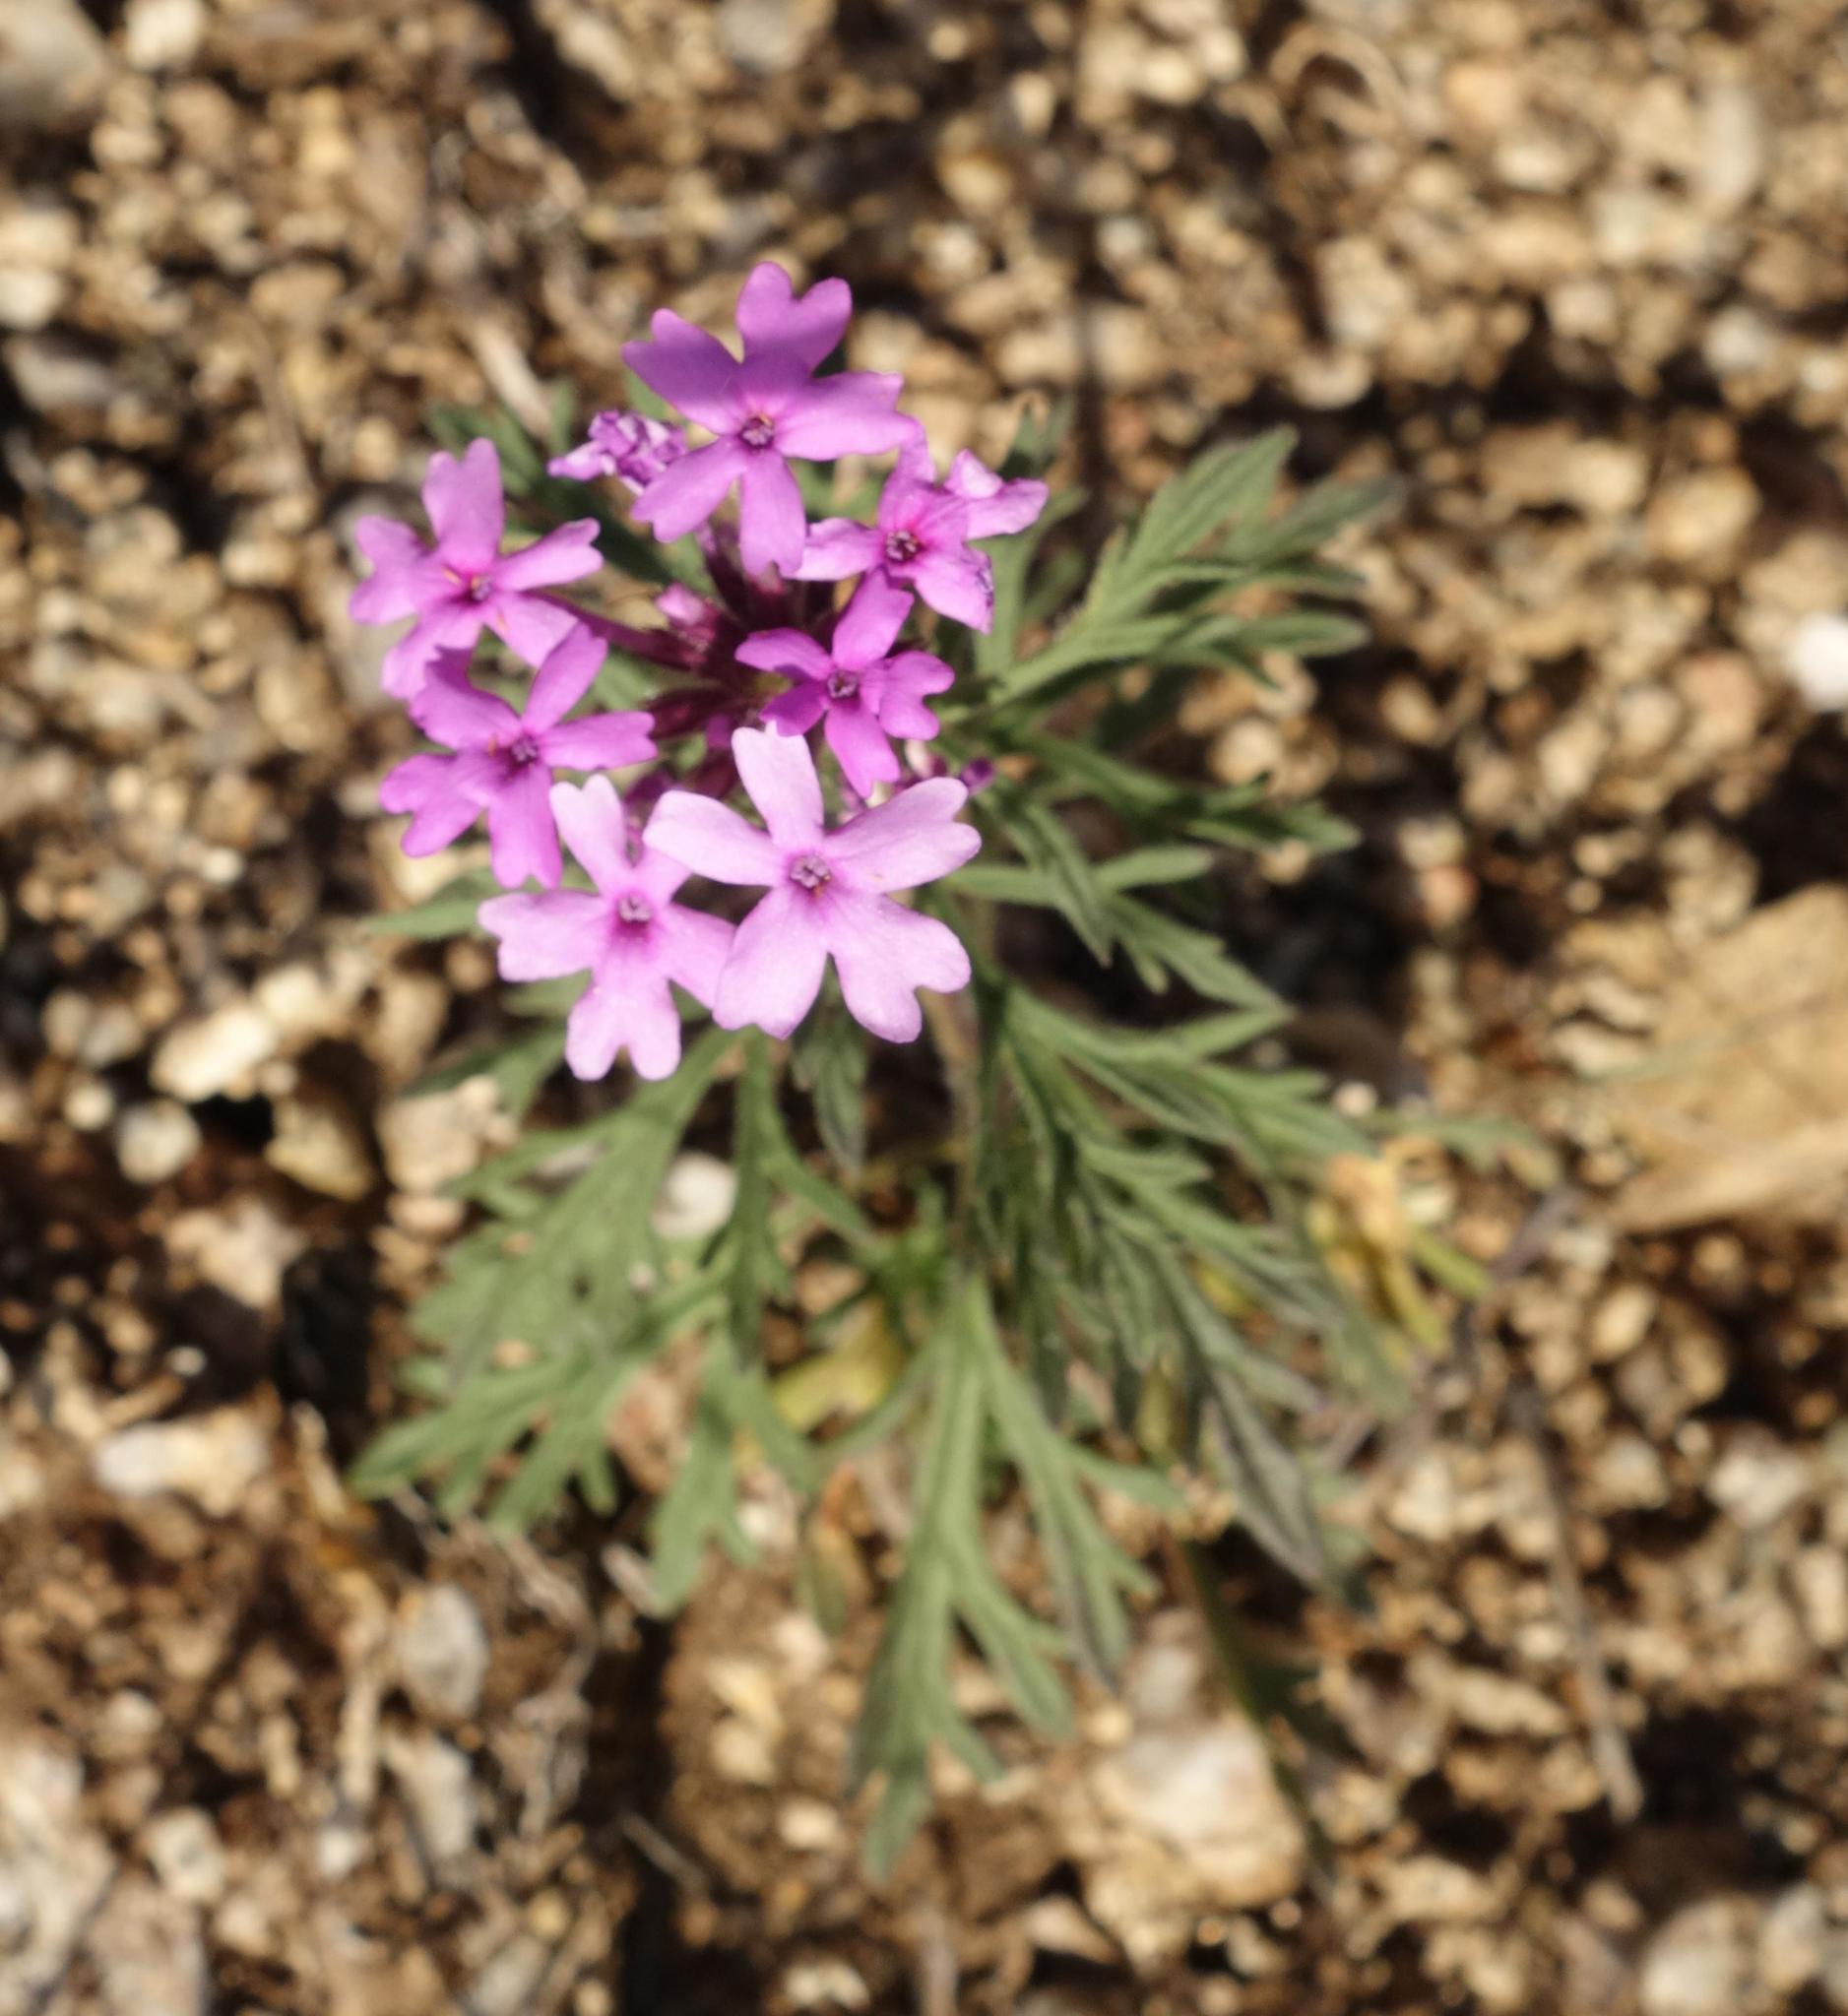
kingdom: Plantae
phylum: Tracheophyta
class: Magnoliopsida
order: Lamiales
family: Verbenaceae
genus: Verbena
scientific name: Verbena bipinnatifida
